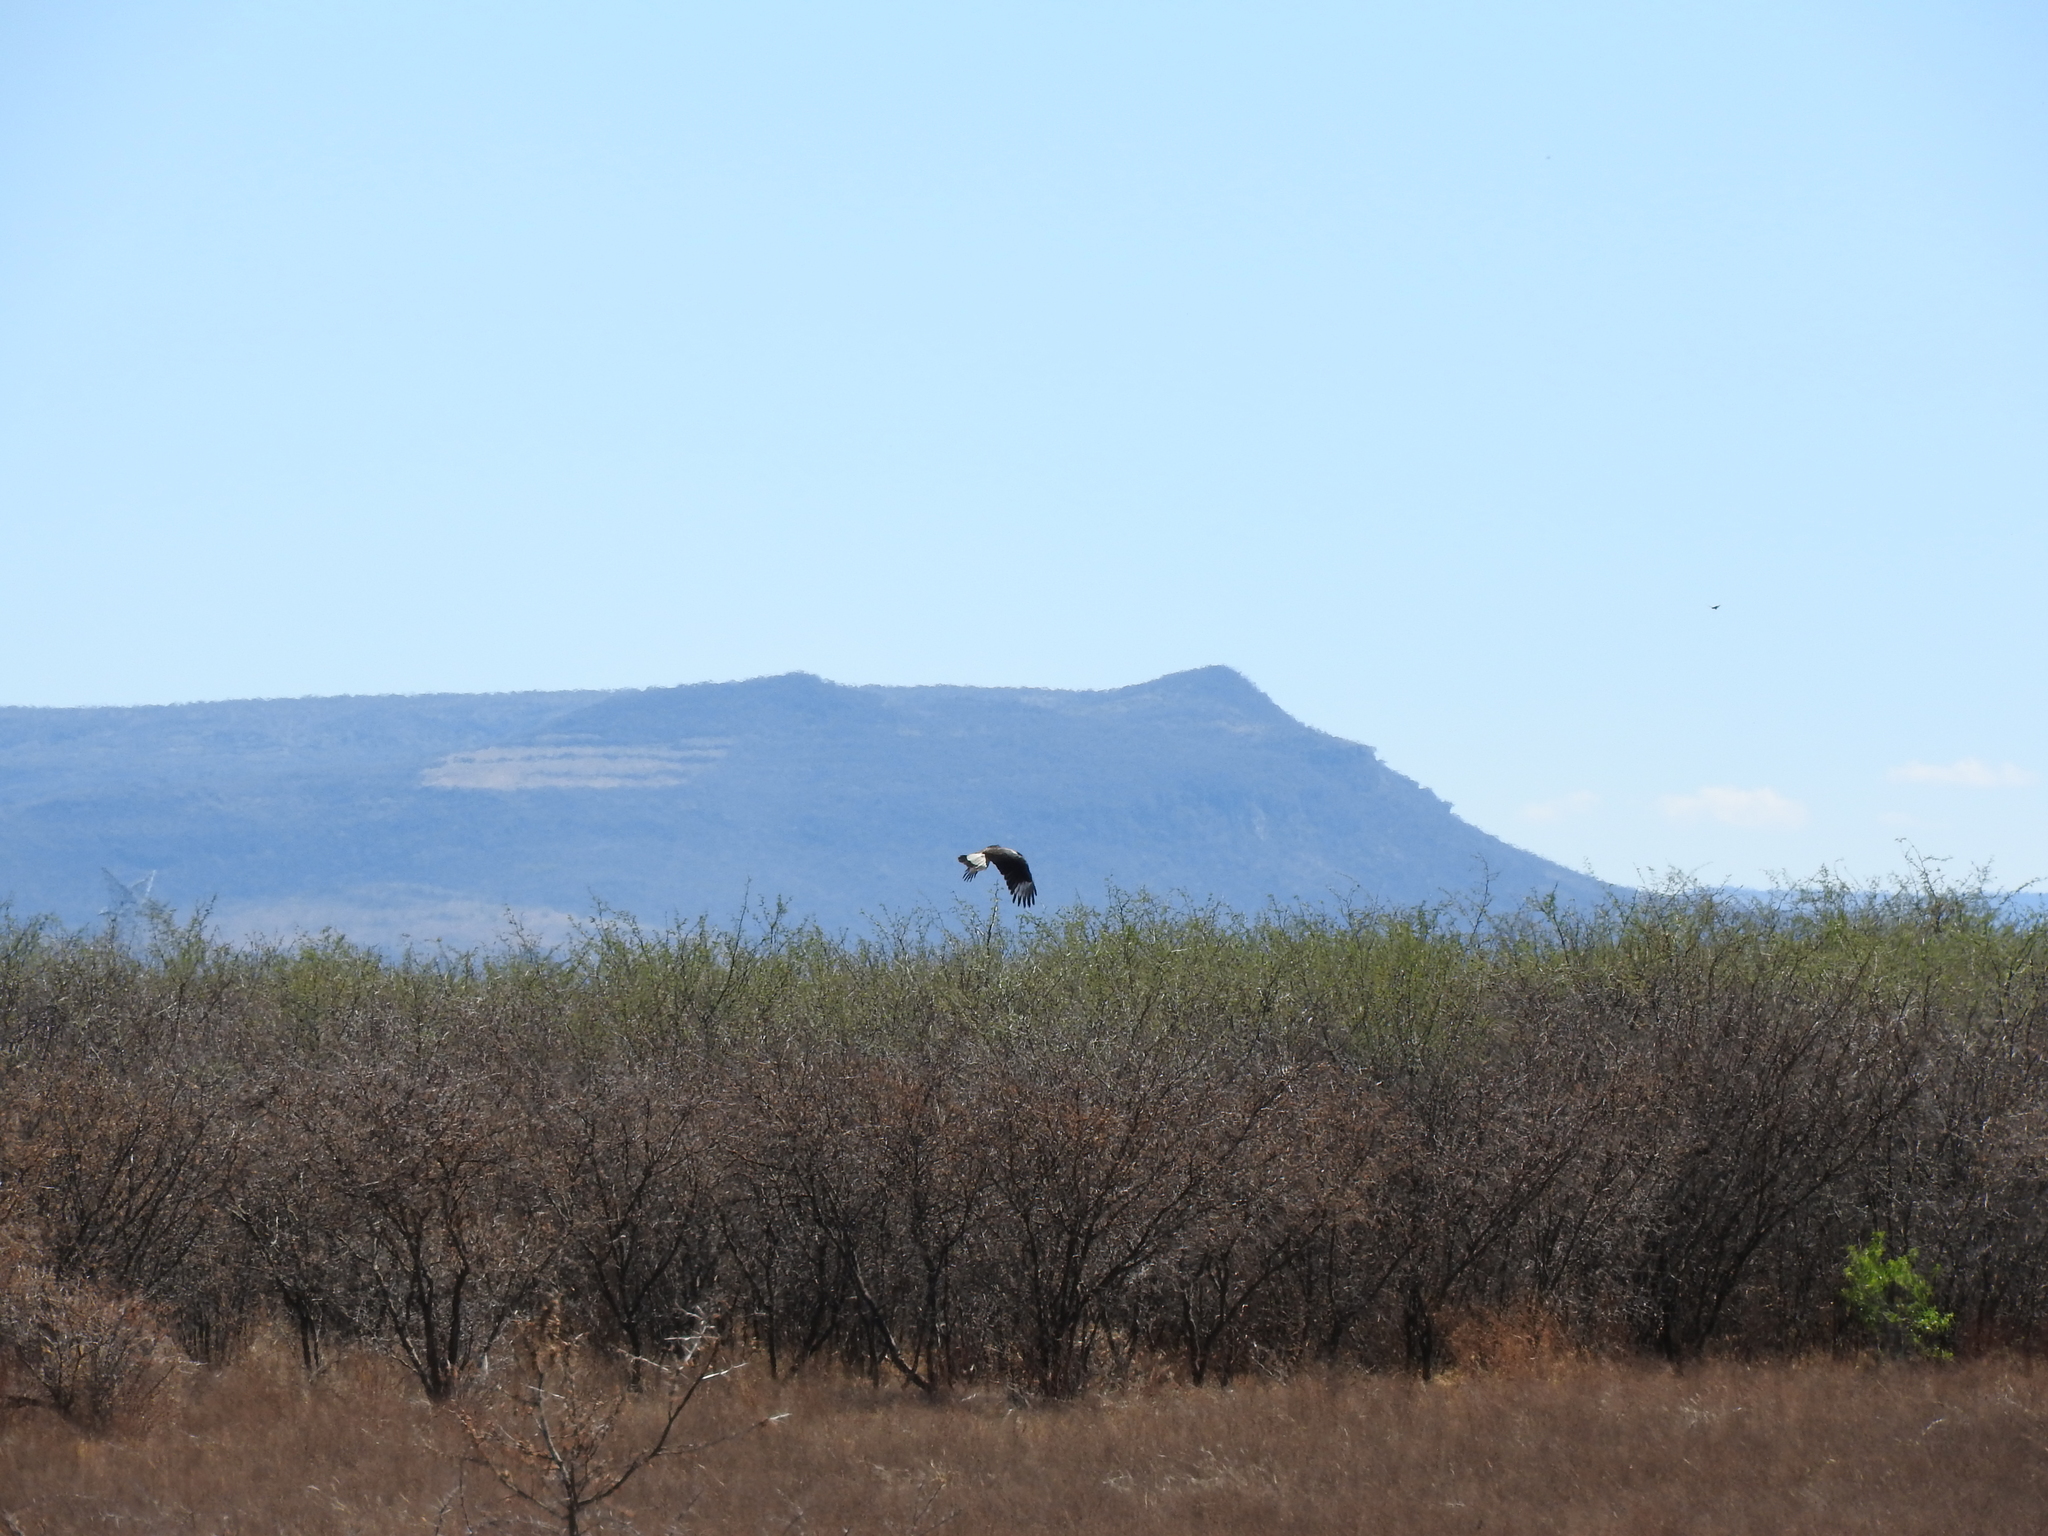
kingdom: Animalia
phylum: Chordata
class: Aves
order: Falconiformes
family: Falconidae
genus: Caracara
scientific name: Caracara plancus
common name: Southern caracara
